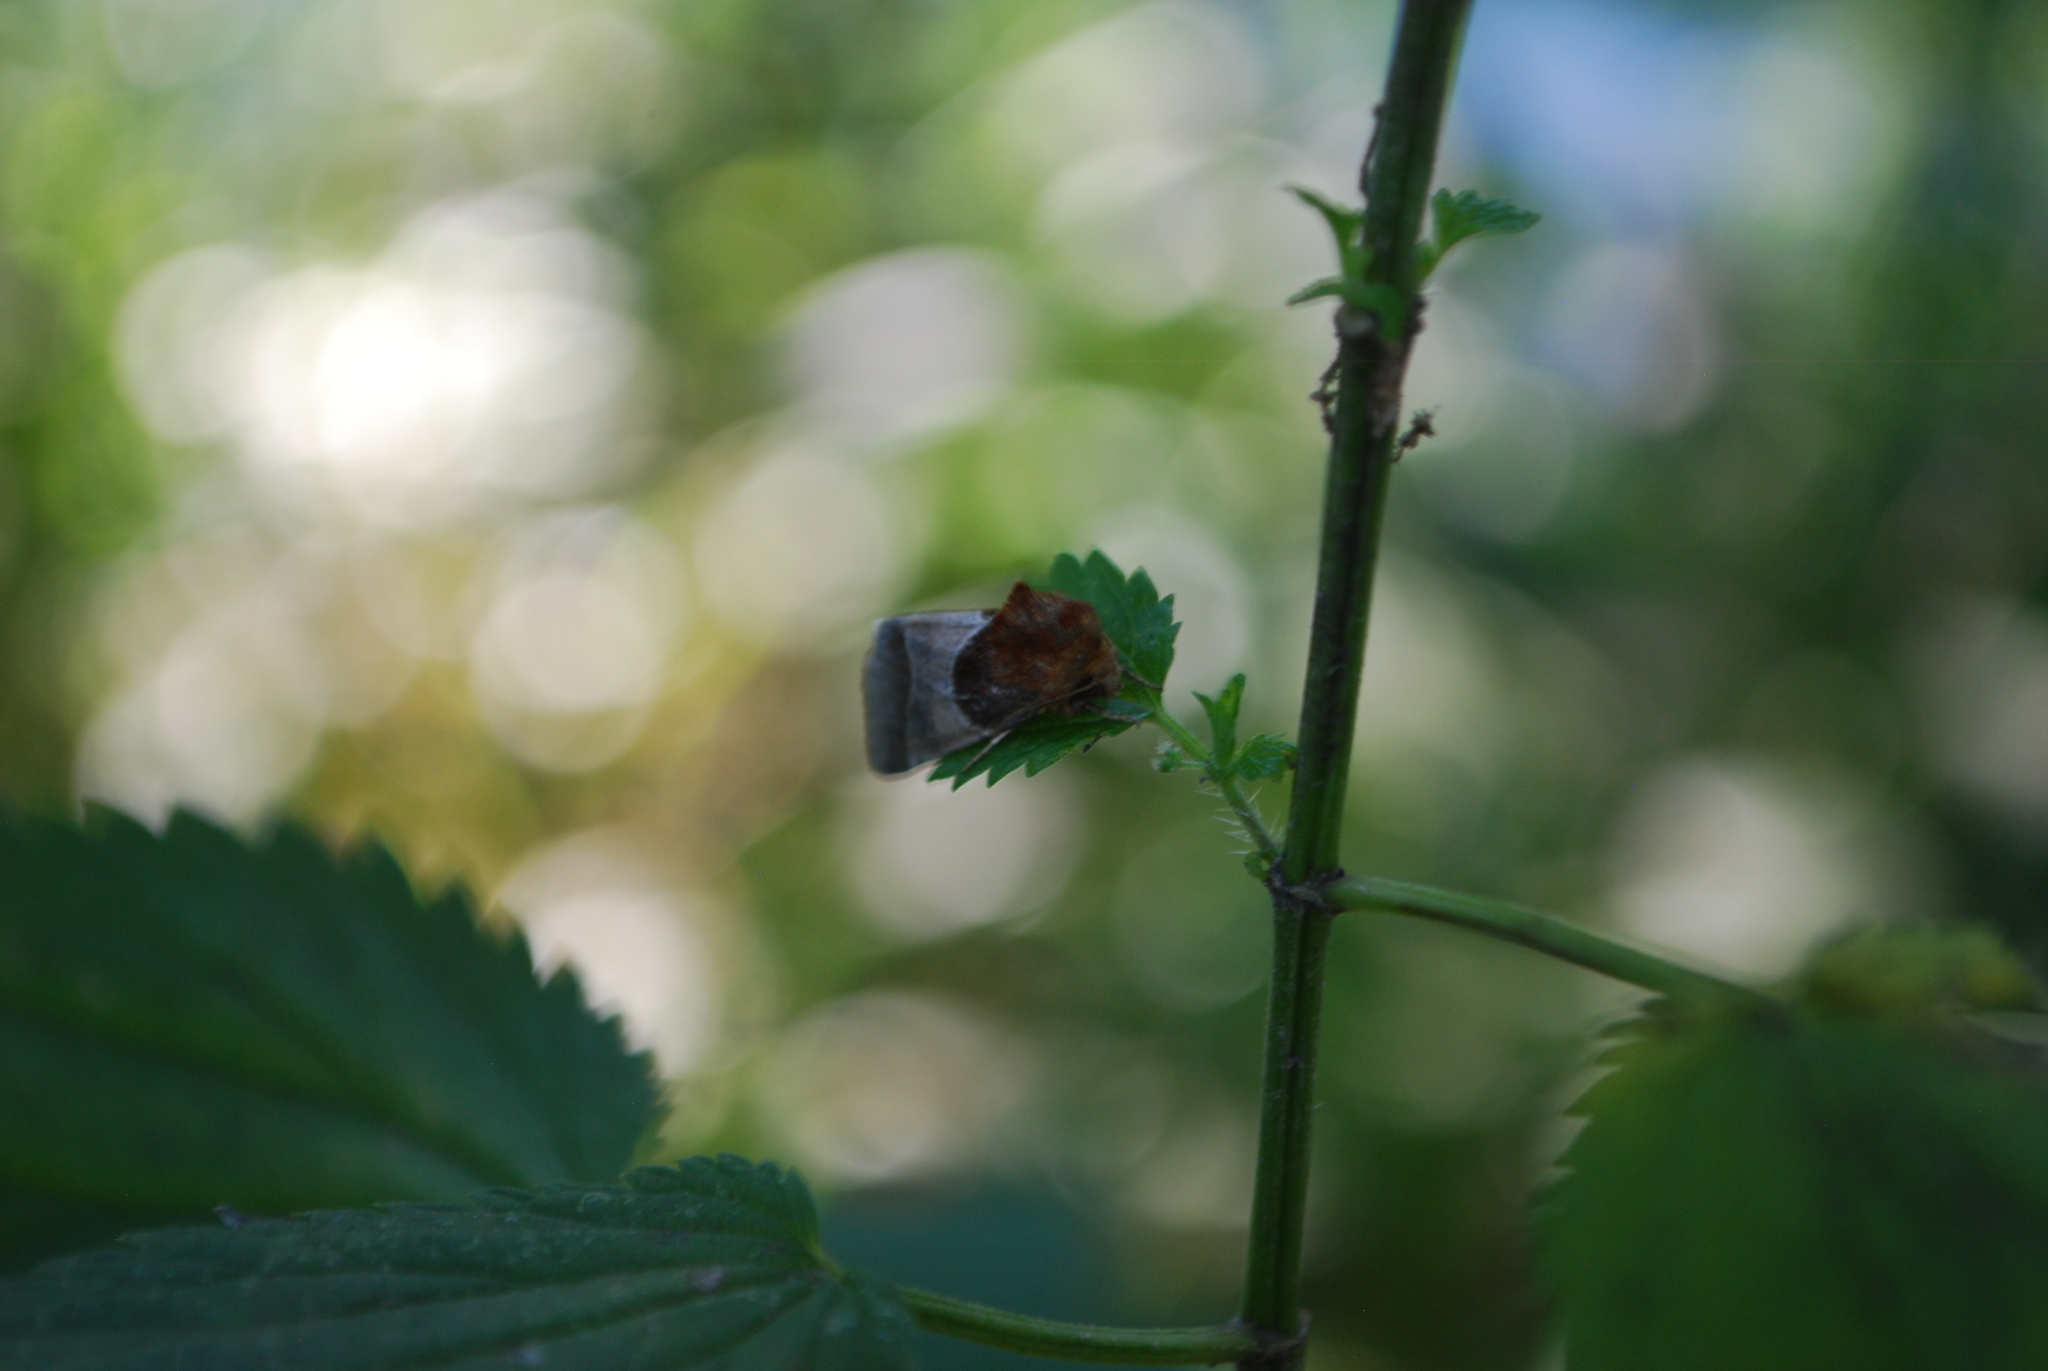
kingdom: Animalia
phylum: Arthropoda
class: Insecta
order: Lepidoptera
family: Noctuidae
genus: Schinia
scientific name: Schinia arcigera
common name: Arcigera flower moth
